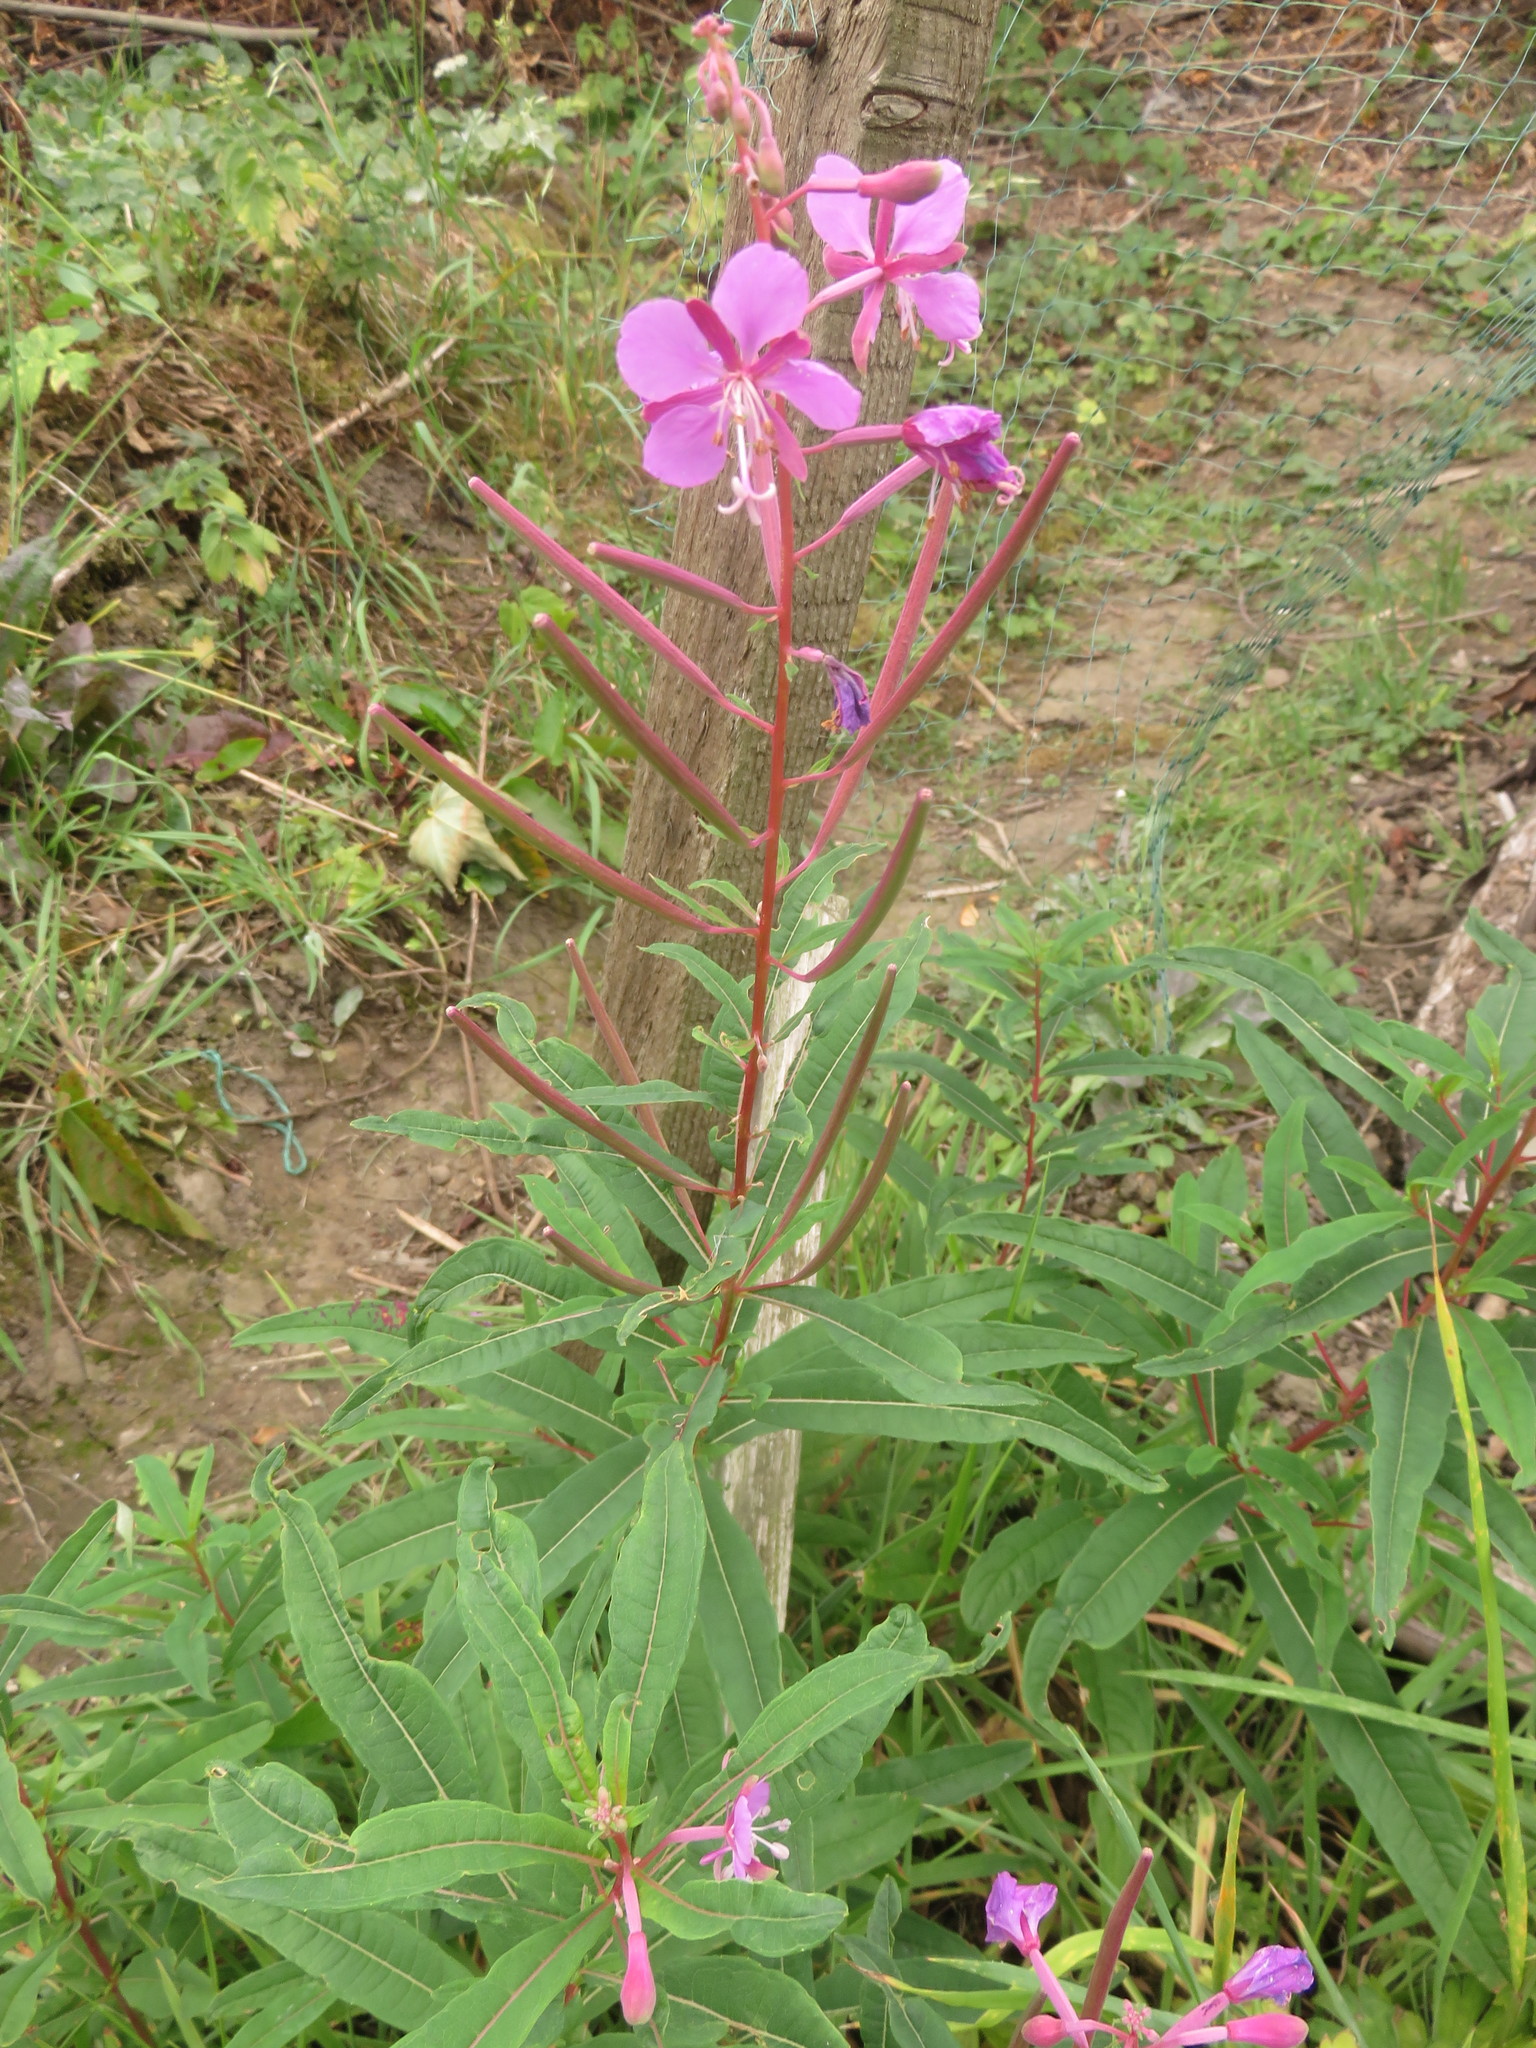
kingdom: Plantae
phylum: Tracheophyta
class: Magnoliopsida
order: Myrtales
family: Onagraceae
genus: Chamaenerion
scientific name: Chamaenerion angustifolium
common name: Fireweed
